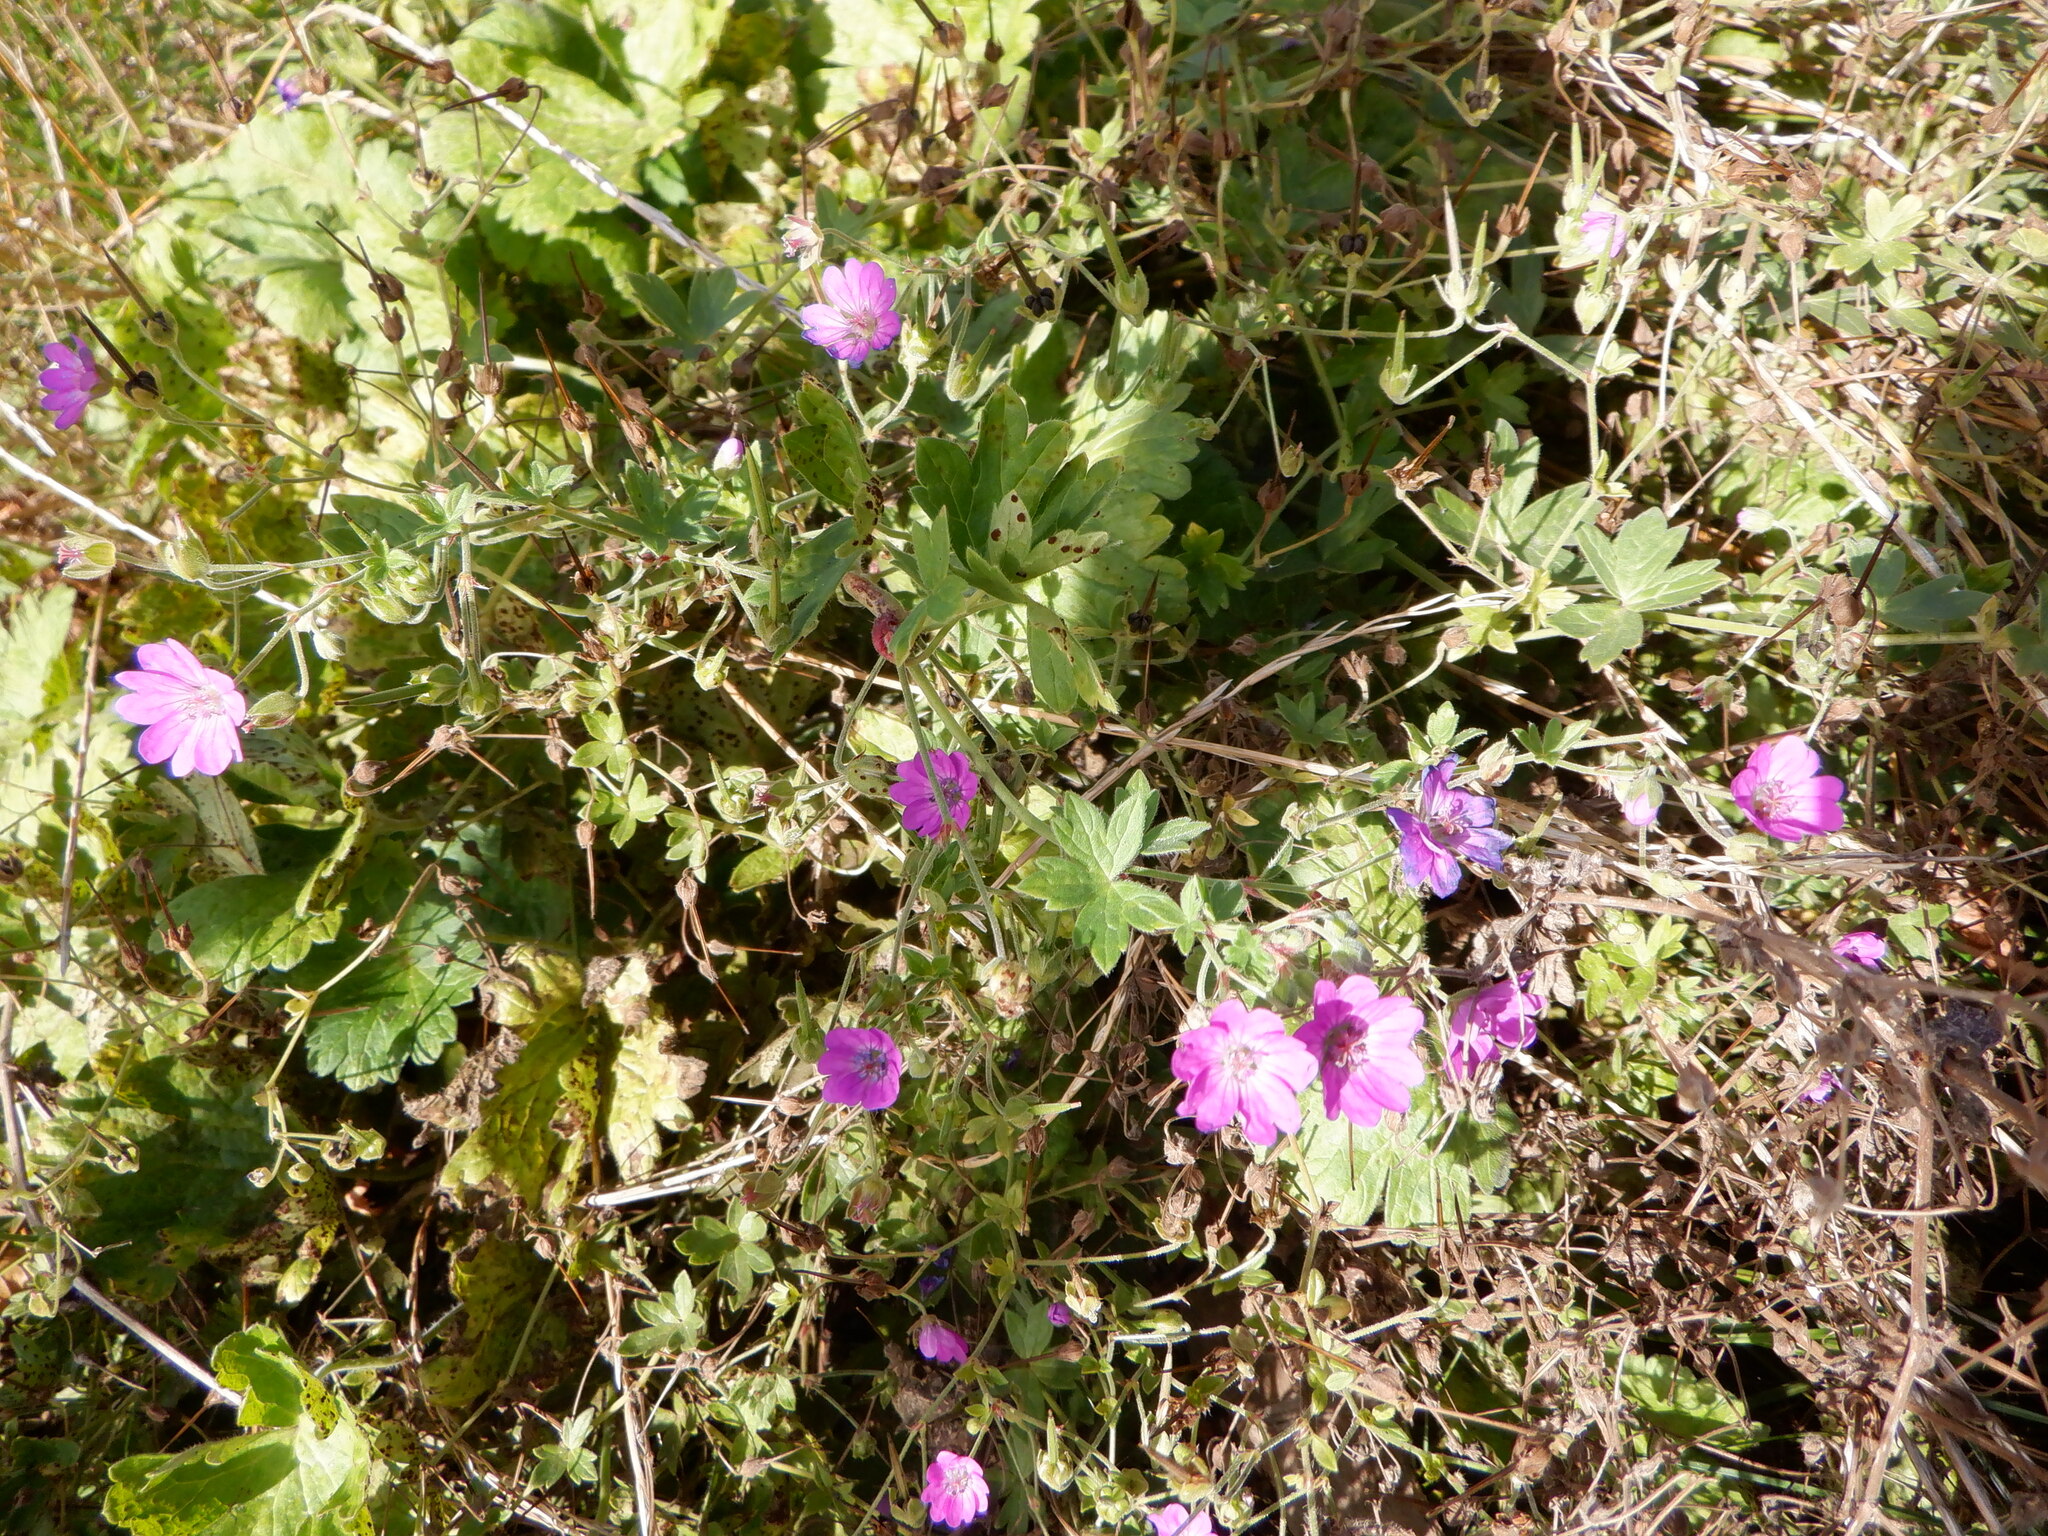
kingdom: Plantae
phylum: Tracheophyta
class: Magnoliopsida
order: Geraniales
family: Geraniaceae
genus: Geranium
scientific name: Geranium pyrenaicum
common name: Hedgerow crane's-bill
